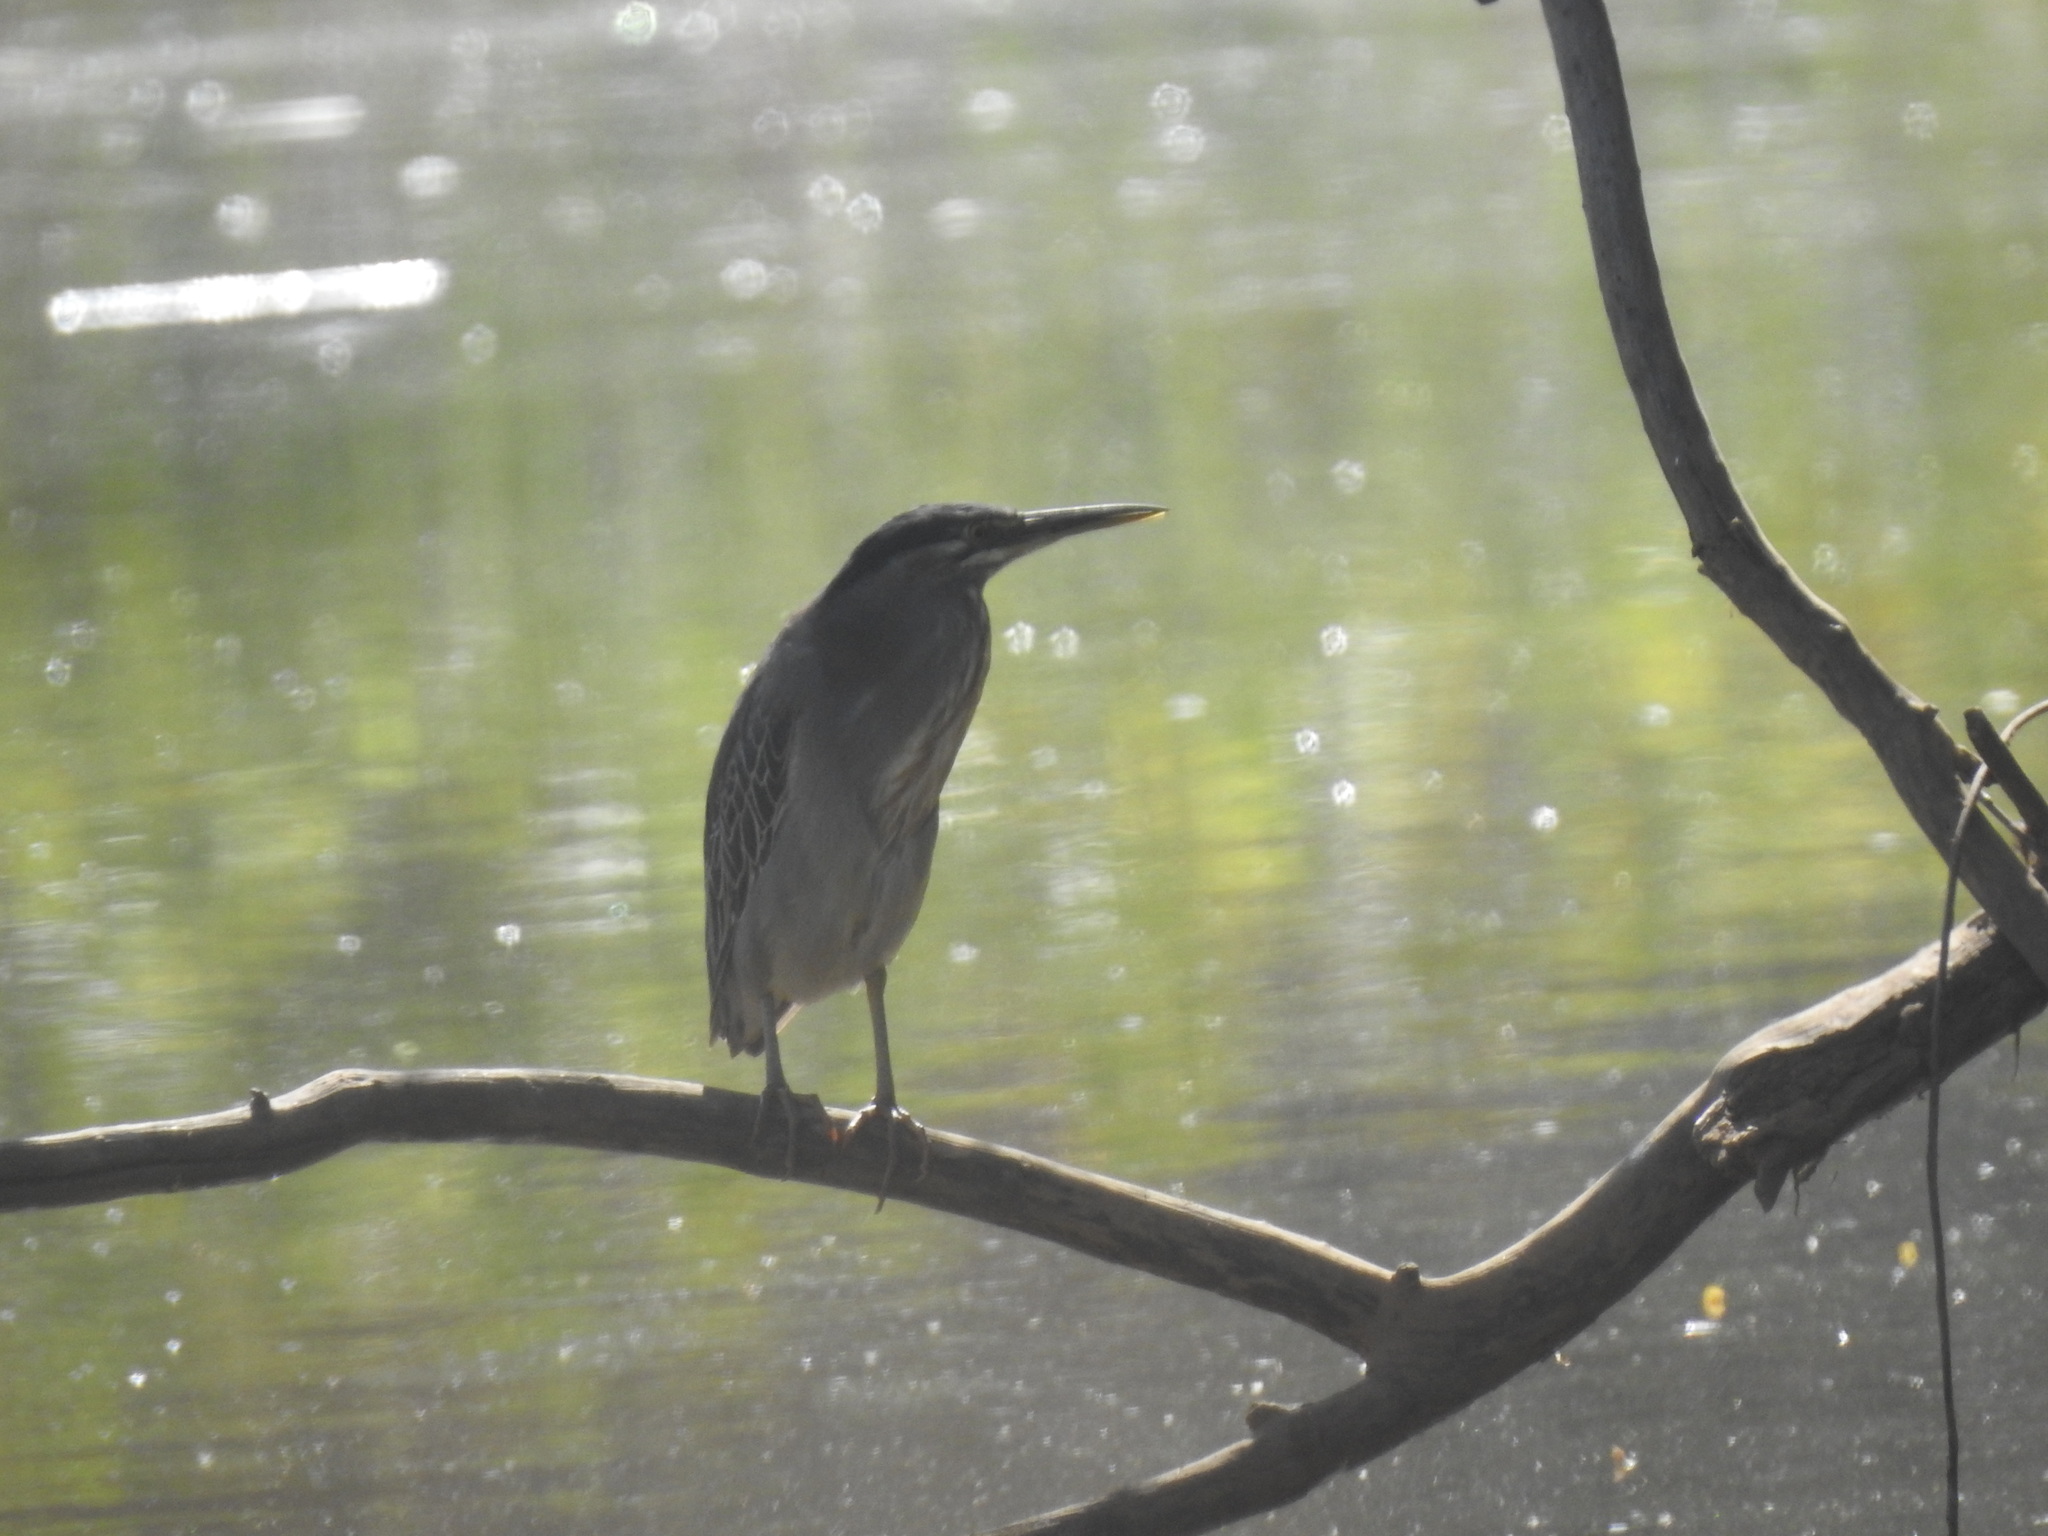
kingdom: Animalia
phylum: Chordata
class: Aves
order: Pelecaniformes
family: Ardeidae
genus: Butorides
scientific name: Butorides striata
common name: Striated heron
